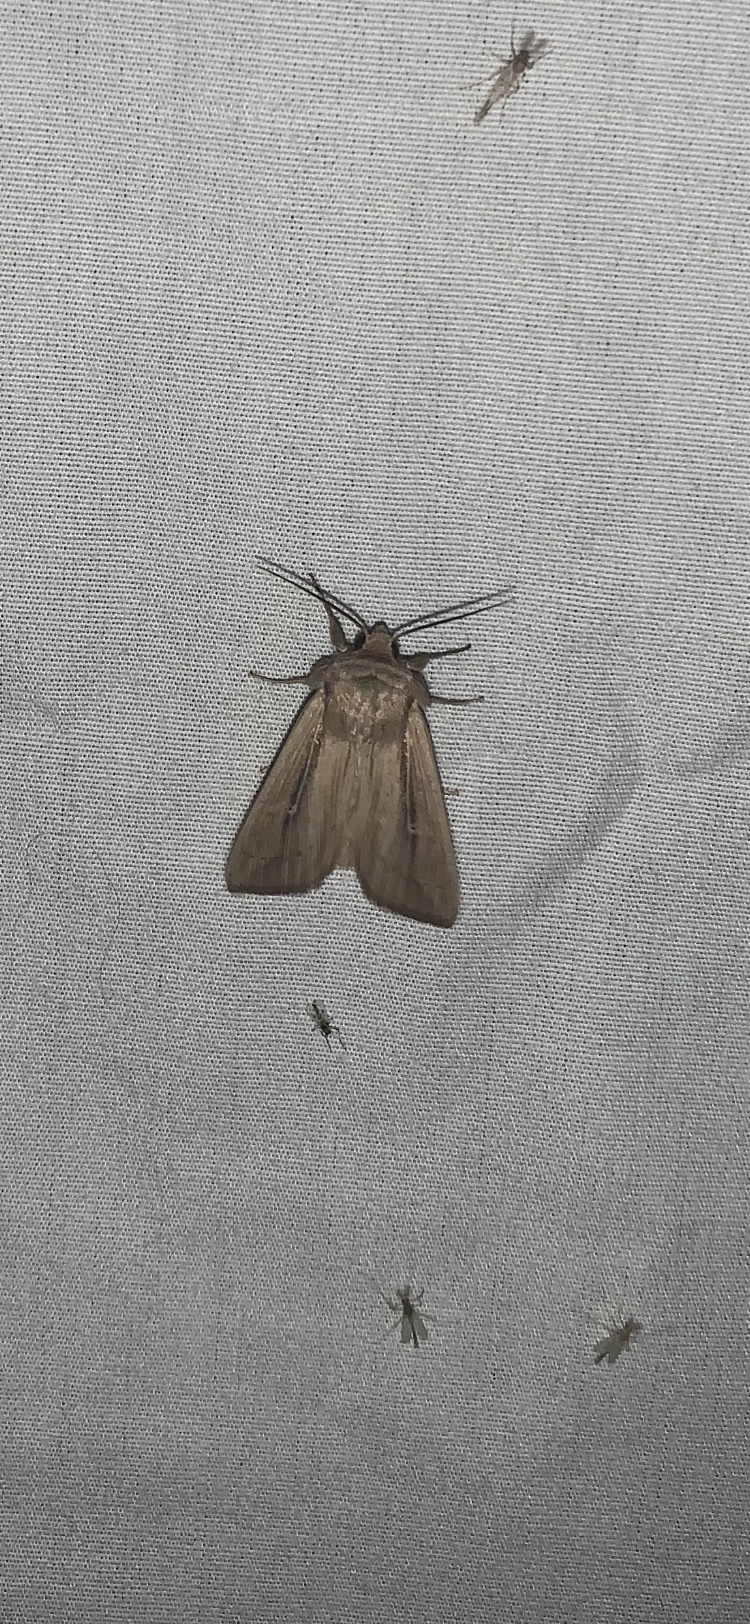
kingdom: Animalia
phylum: Arthropoda
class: Insecta
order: Lepidoptera
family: Noctuidae
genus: Leucania
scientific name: Leucania phragmitidicola
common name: Phragmites wainscot
